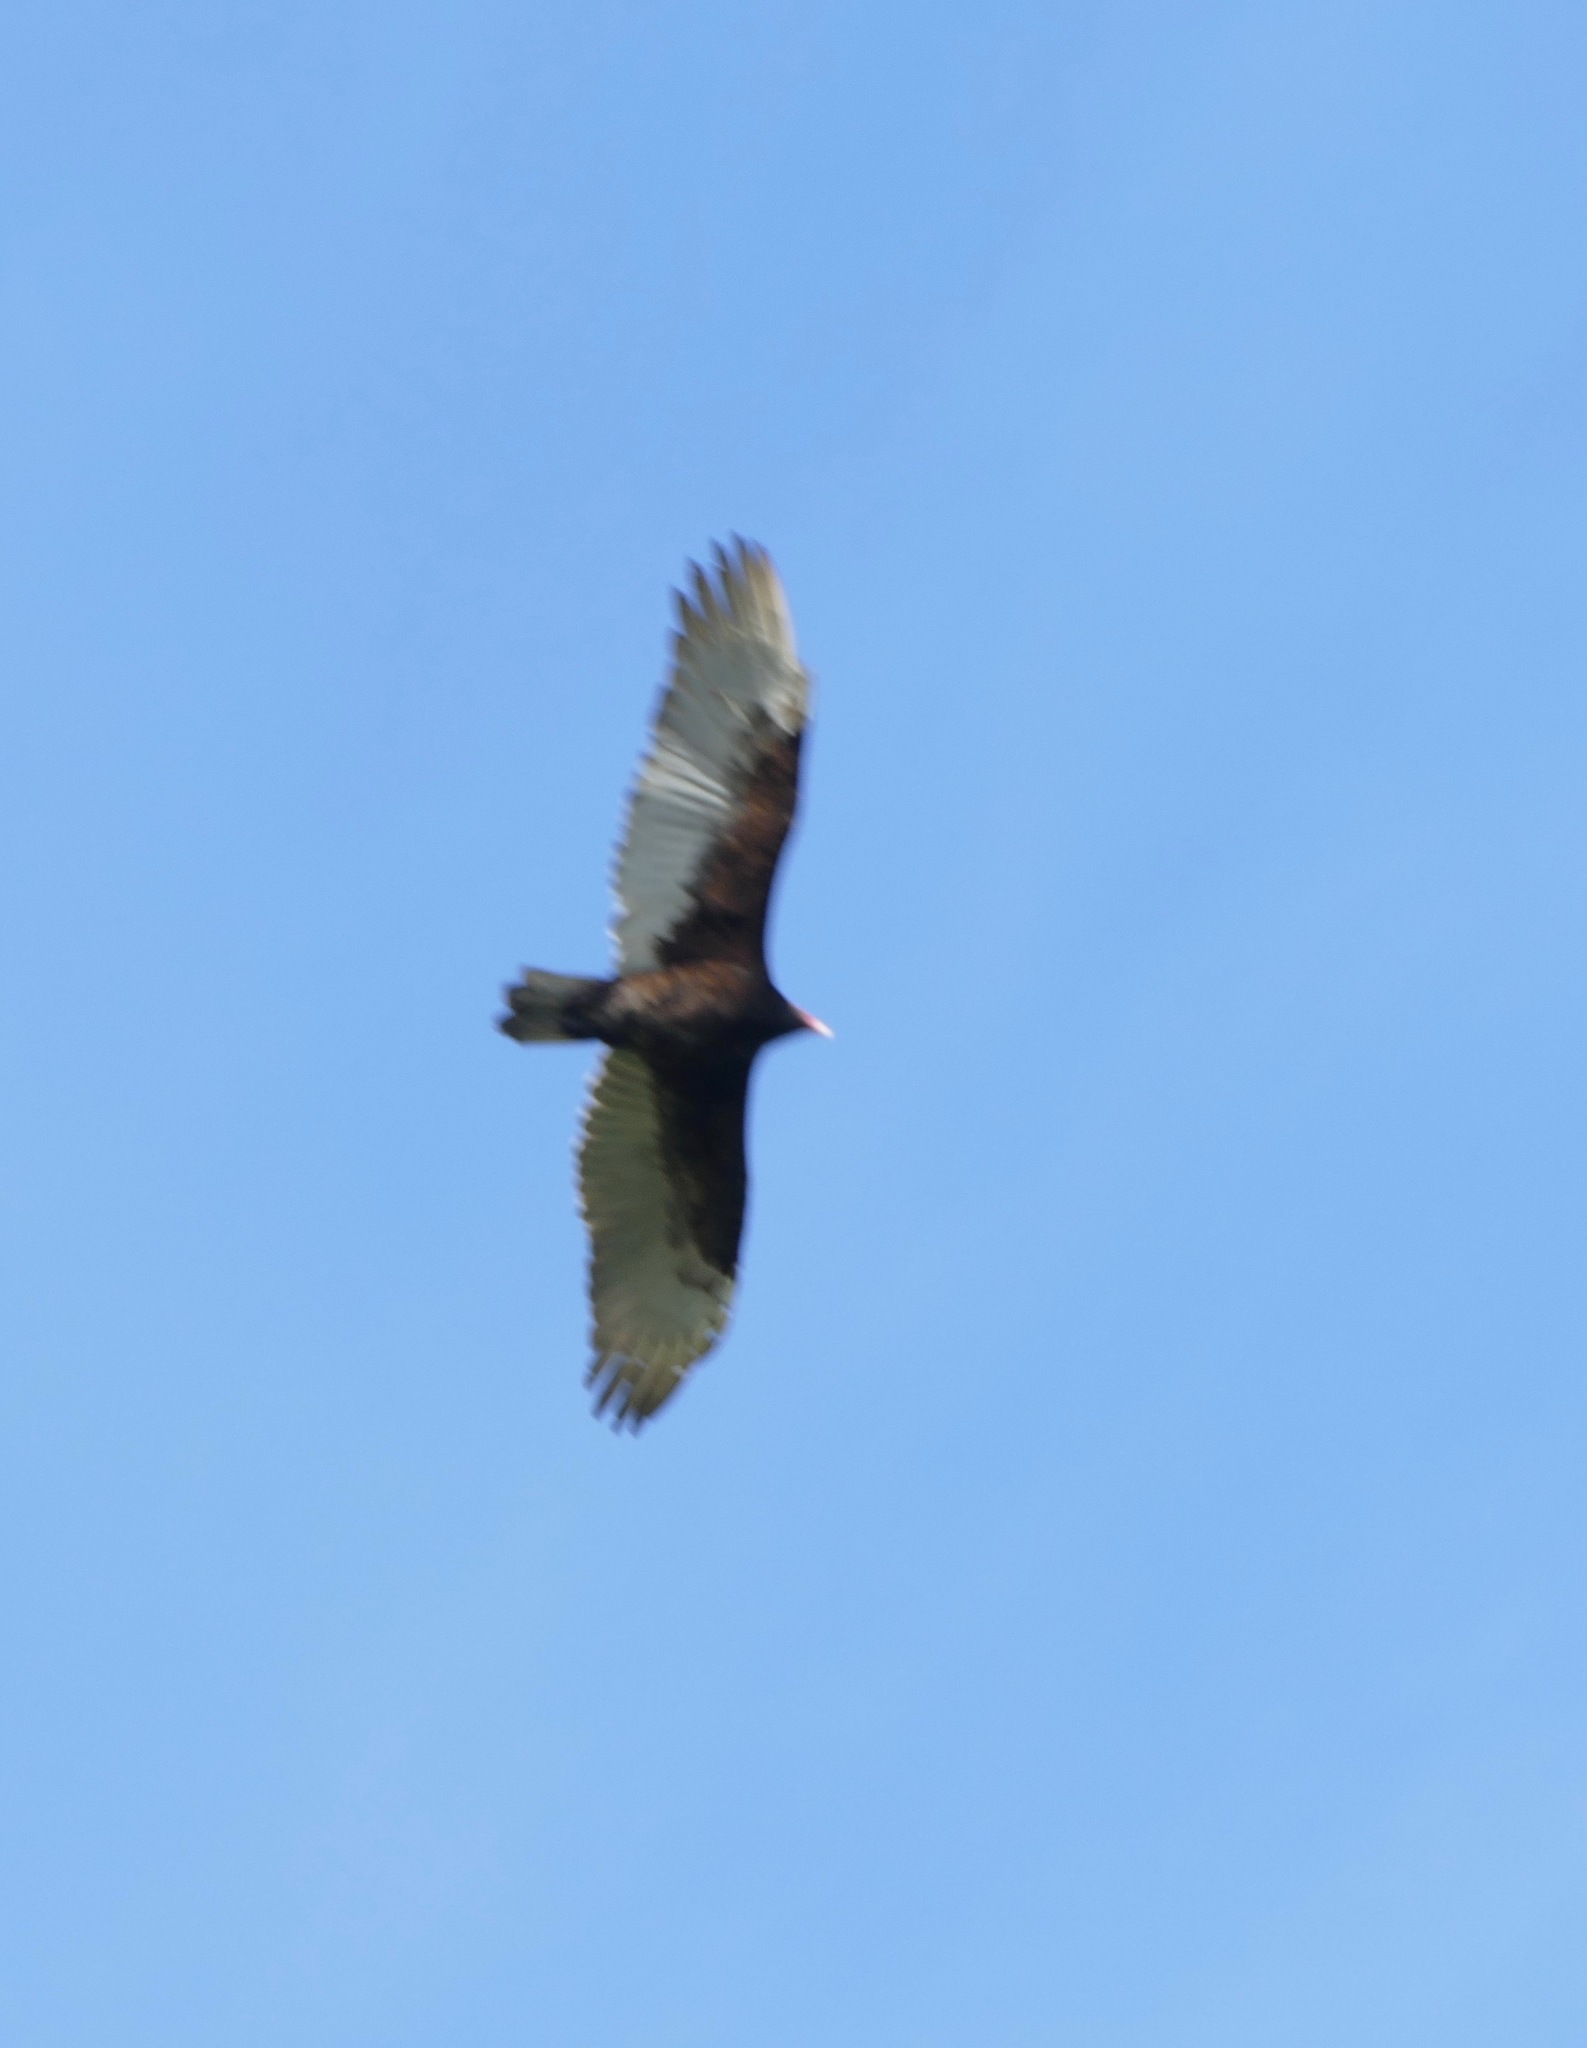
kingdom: Animalia
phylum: Chordata
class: Aves
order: Accipitriformes
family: Cathartidae
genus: Cathartes
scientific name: Cathartes aura
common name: Turkey vulture
